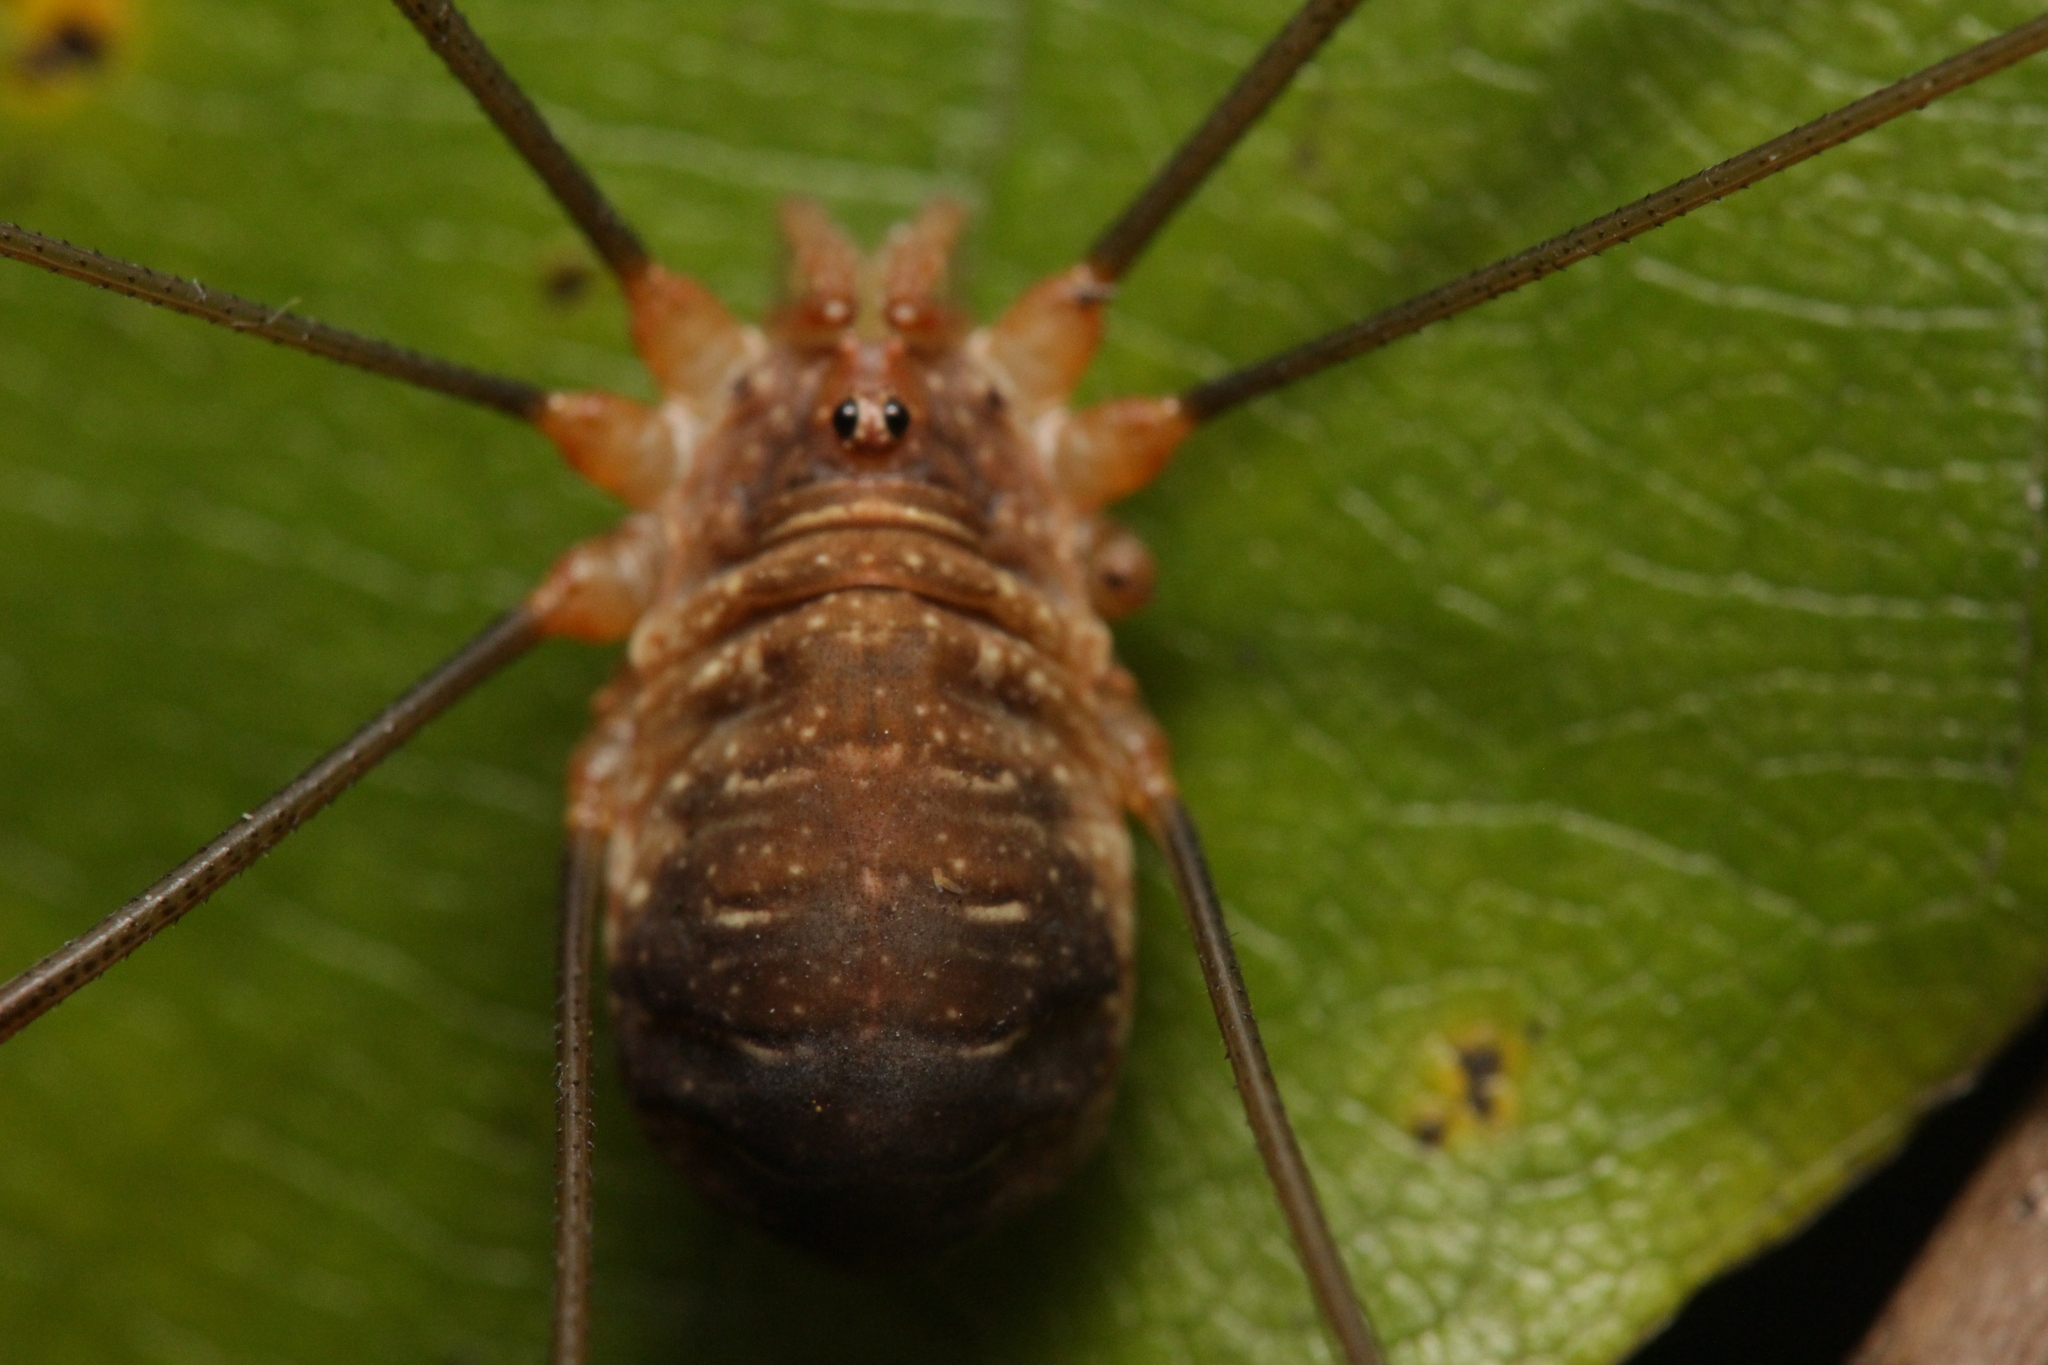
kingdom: Animalia
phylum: Arthropoda
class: Arachnida
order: Opiliones
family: Phalangiidae
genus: Opilio
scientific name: Opilio canestrinii
